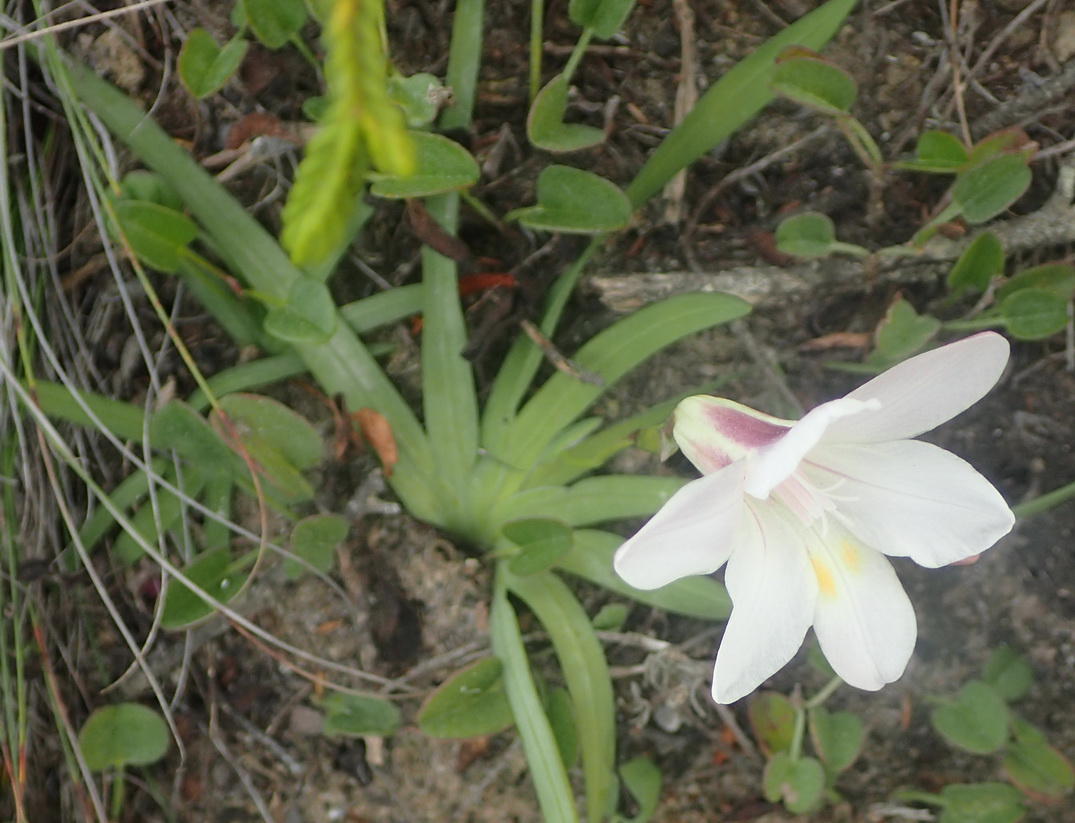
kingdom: Plantae
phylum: Tracheophyta
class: Liliopsida
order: Asparagales
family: Iridaceae
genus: Freesia
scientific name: Freesia leichtlinii
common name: Freesia
